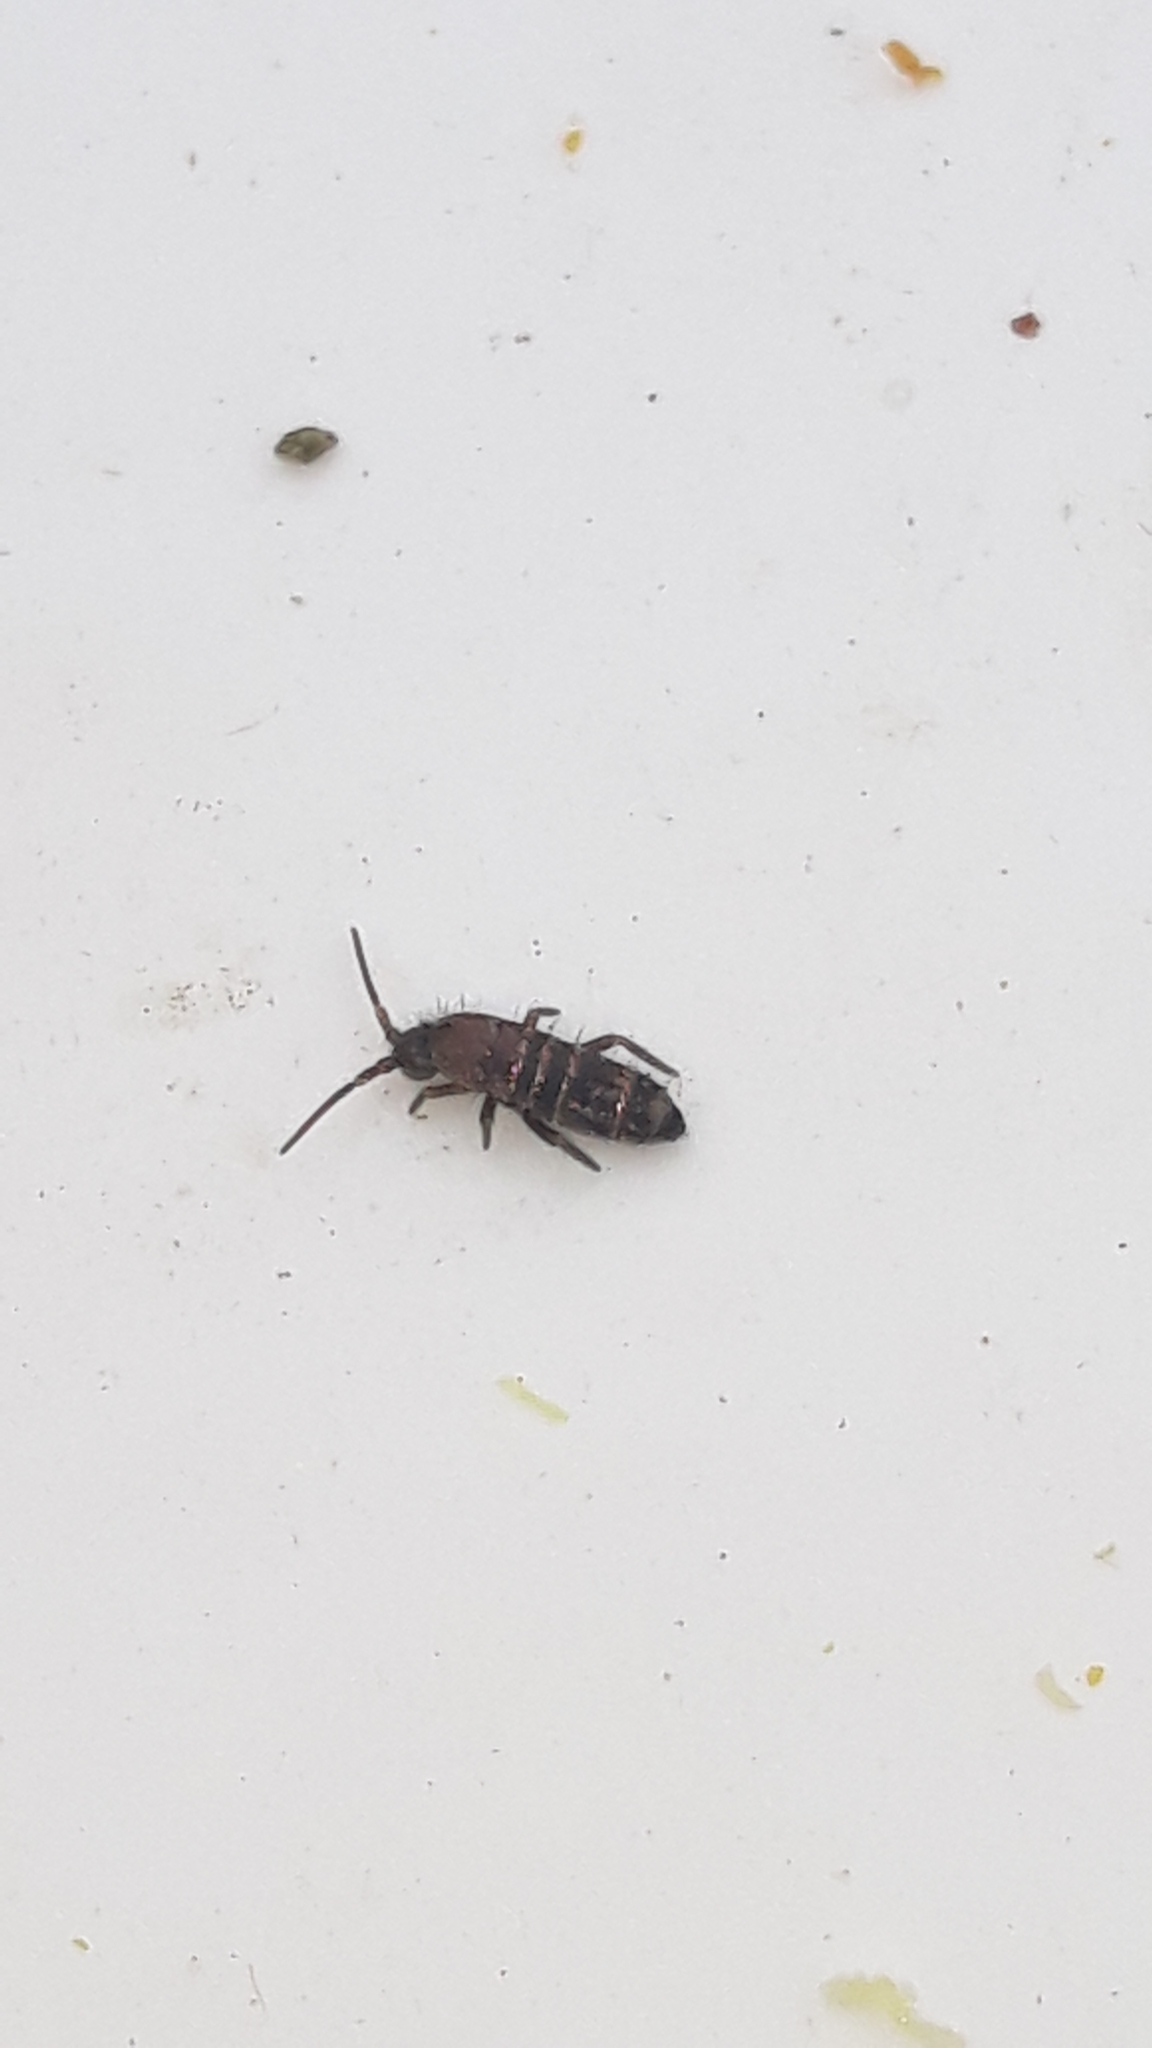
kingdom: Animalia
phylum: Arthropoda
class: Collembola
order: Entomobryomorpha
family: Tomoceridae
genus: Tomocerus
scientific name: Tomocerus vulgaris
